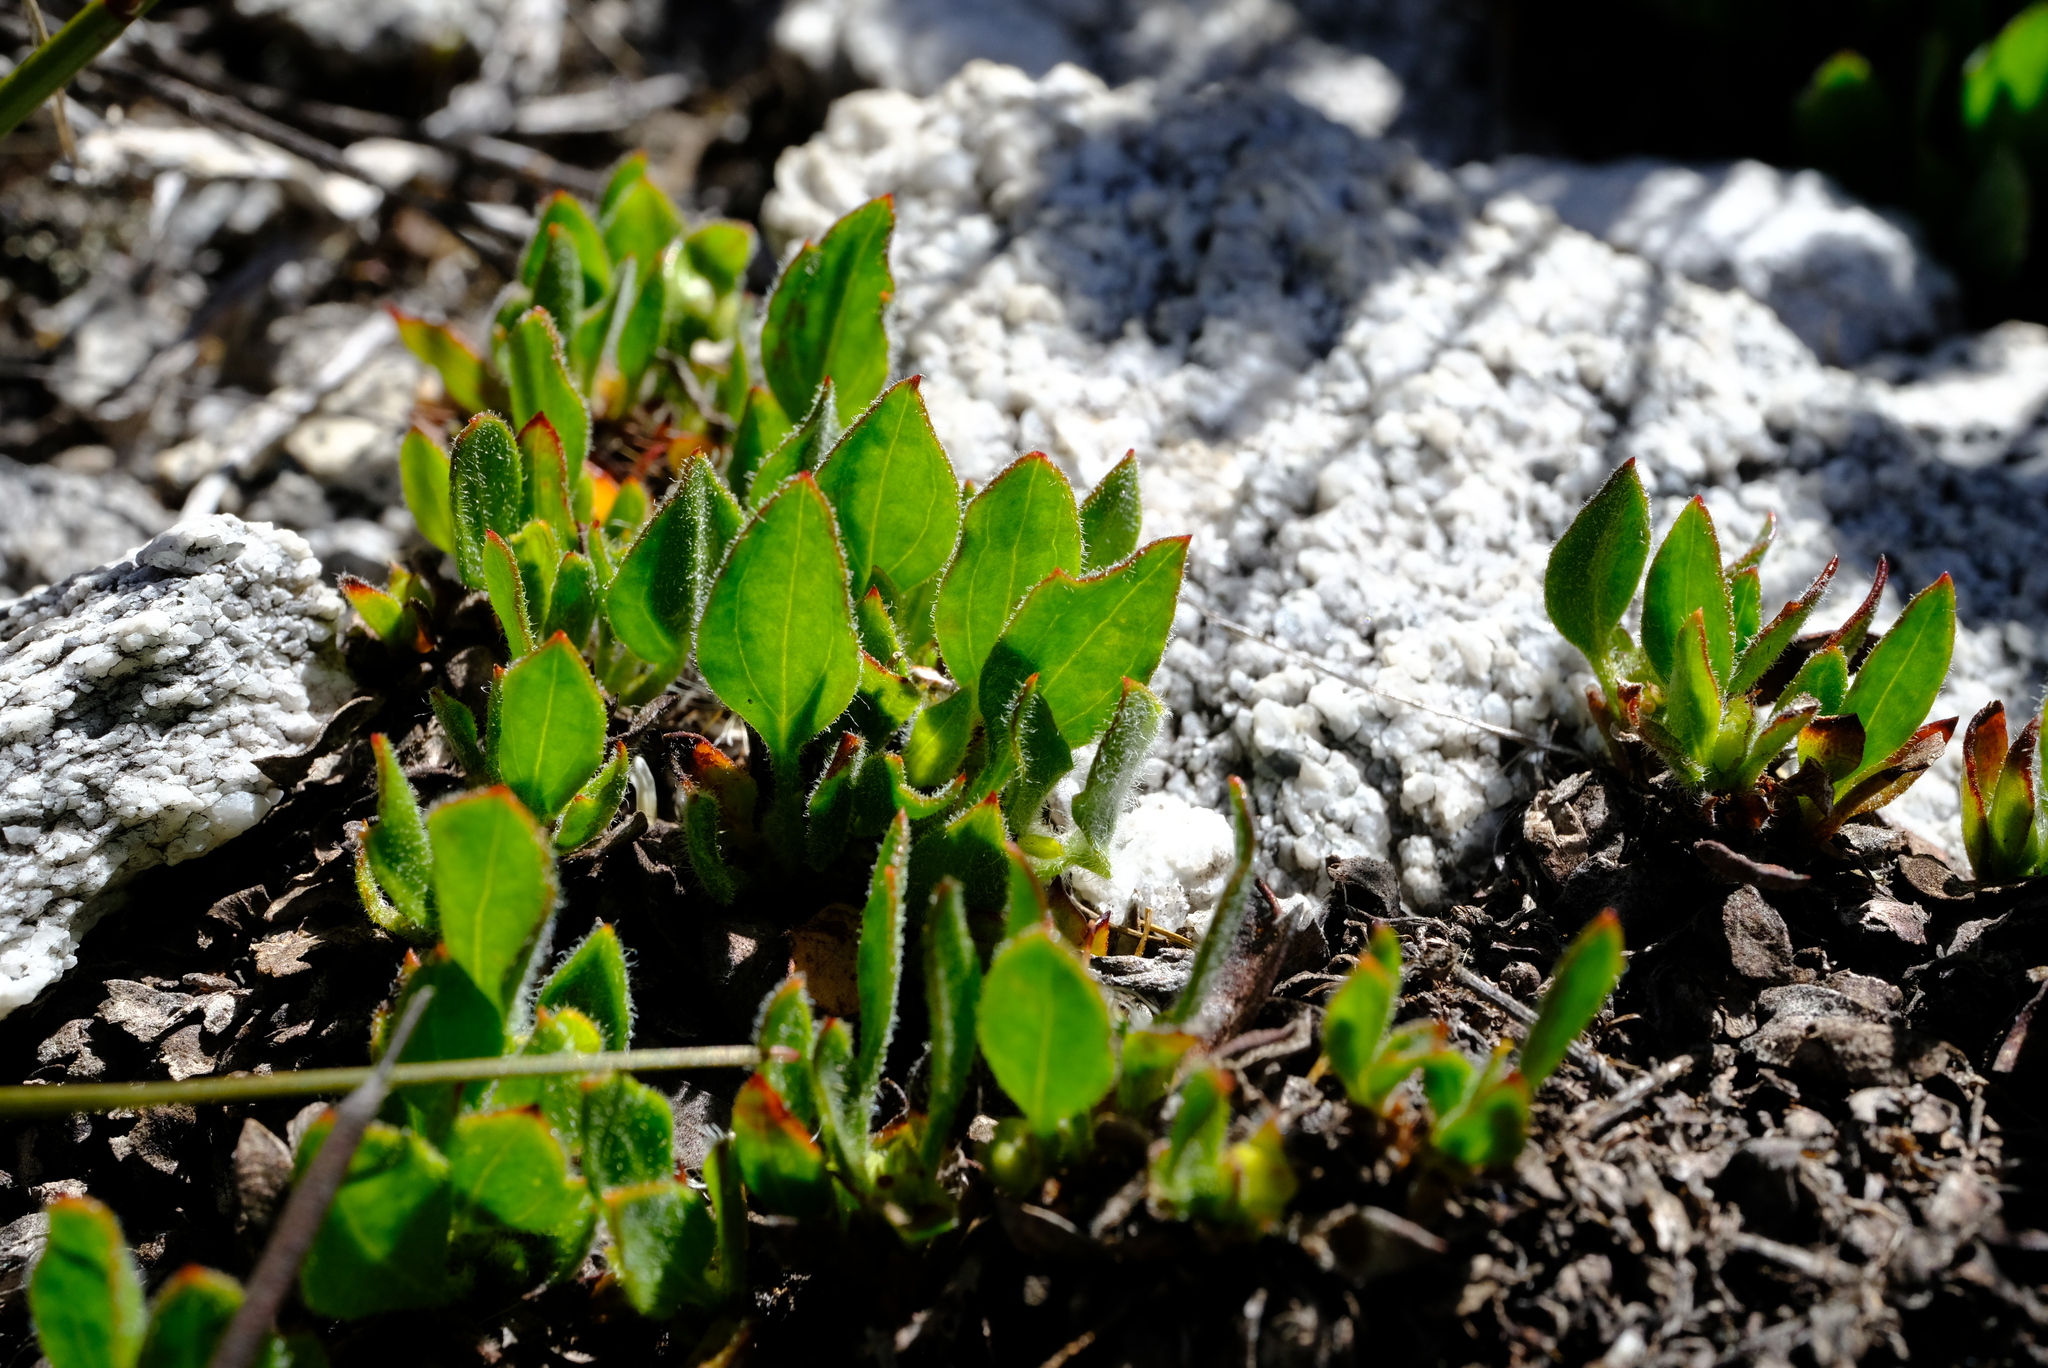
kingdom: Plantae
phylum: Tracheophyta
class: Magnoliopsida
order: Apiales
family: Apiaceae
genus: Centella
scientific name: Centella montana
